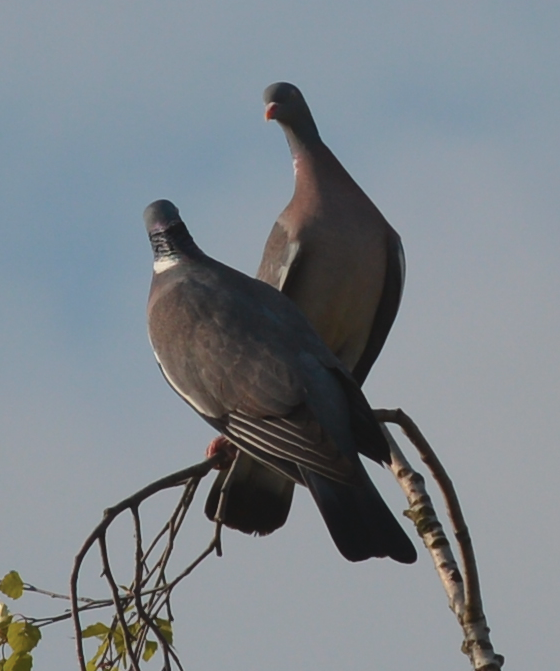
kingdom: Animalia
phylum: Chordata
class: Aves
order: Columbiformes
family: Columbidae
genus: Columba
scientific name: Columba palumbus
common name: Common wood pigeon
